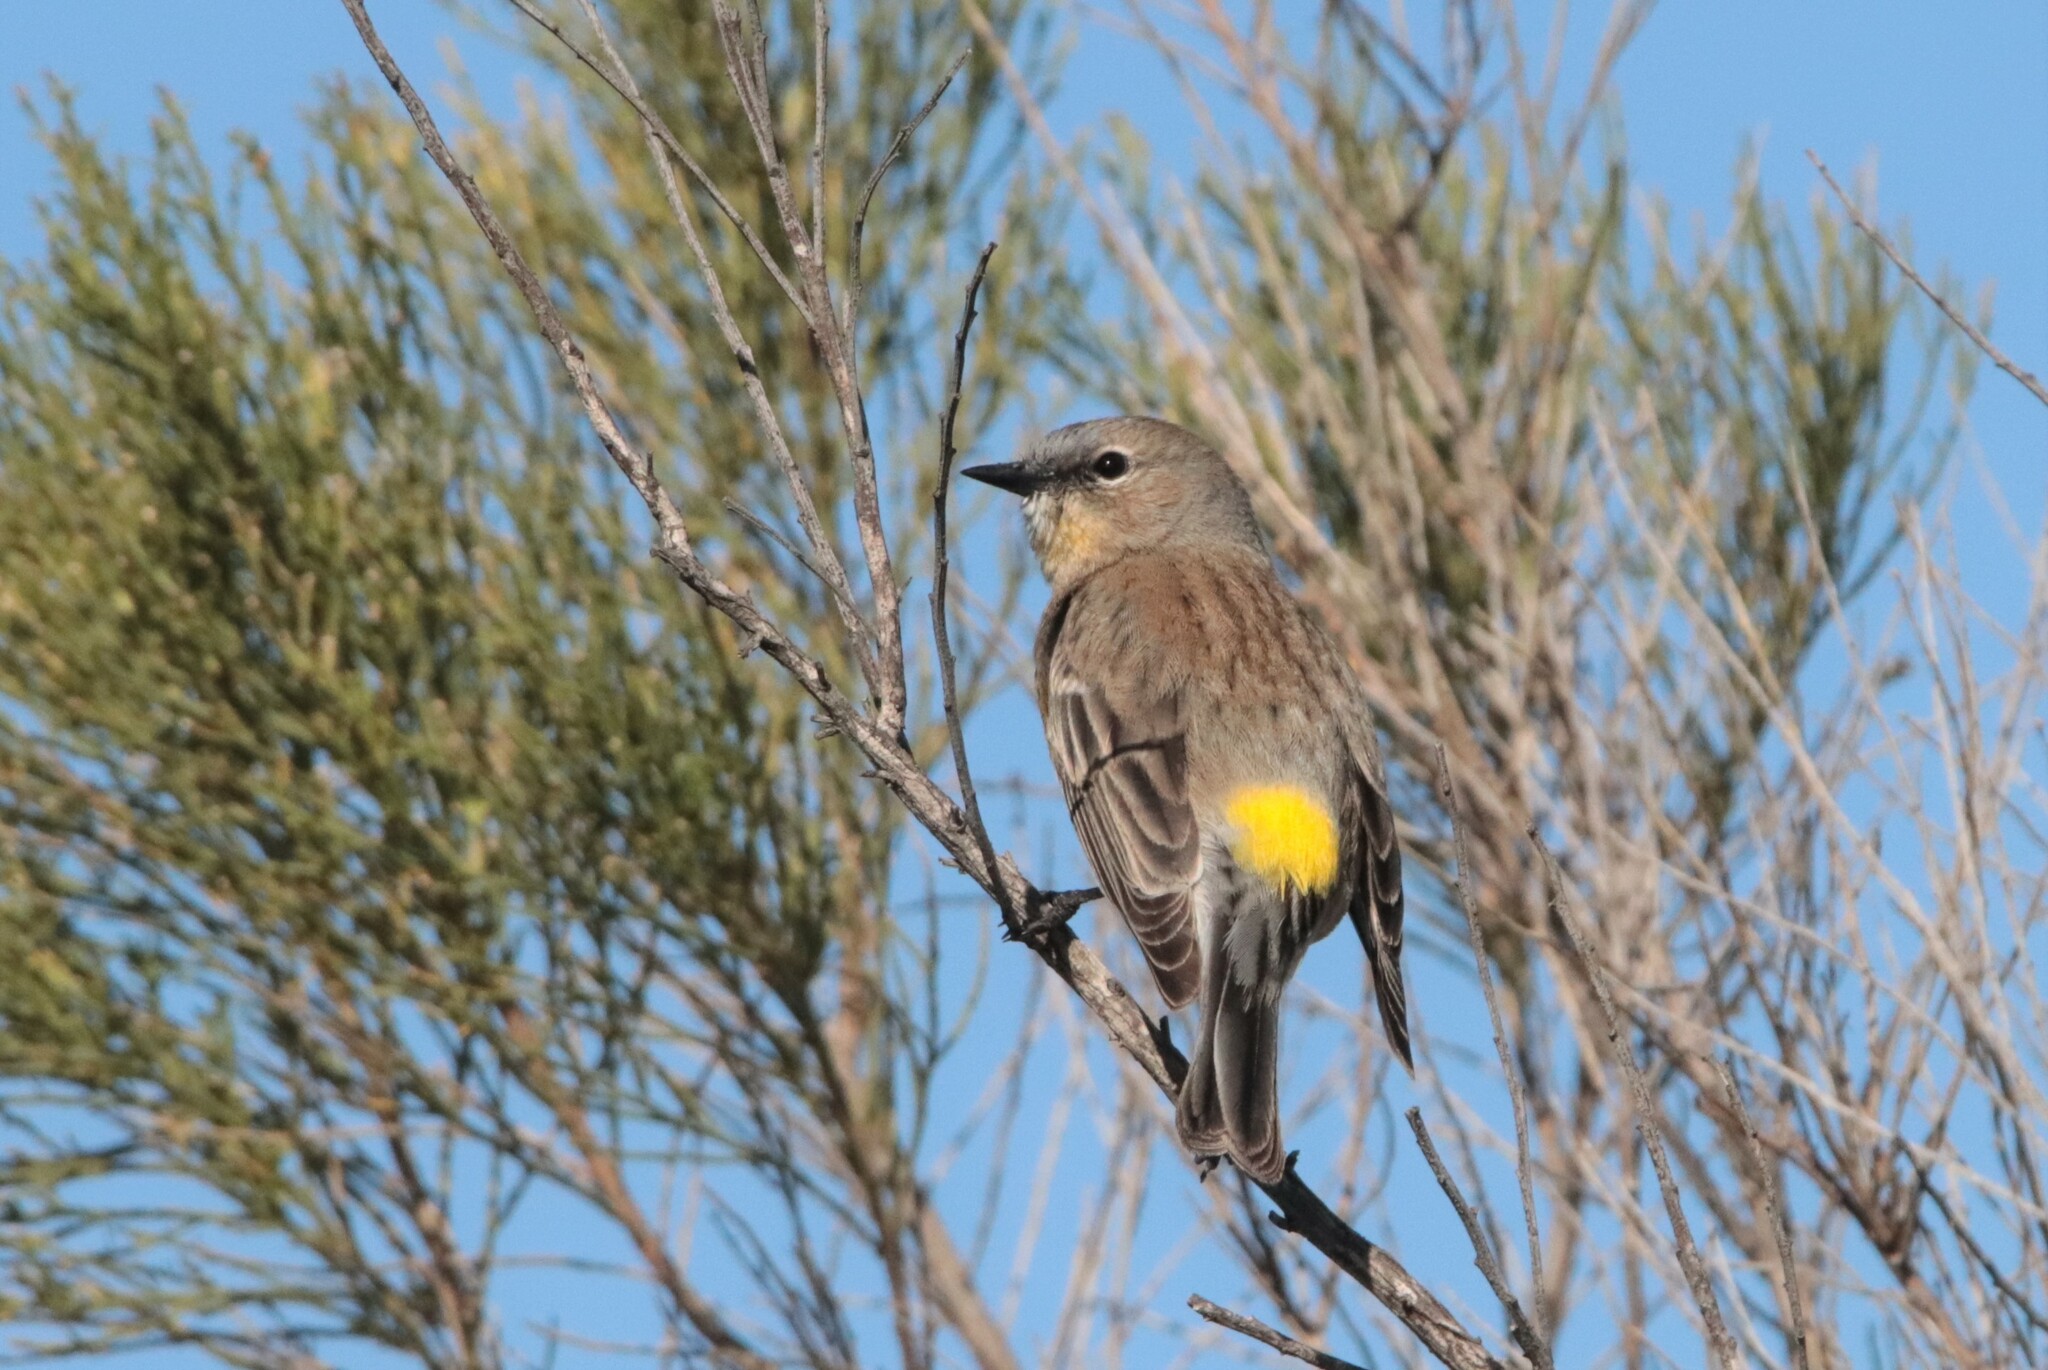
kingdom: Animalia
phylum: Chordata
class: Aves
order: Passeriformes
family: Parulidae
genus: Setophaga
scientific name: Setophaga auduboni
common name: Audubon's warbler
